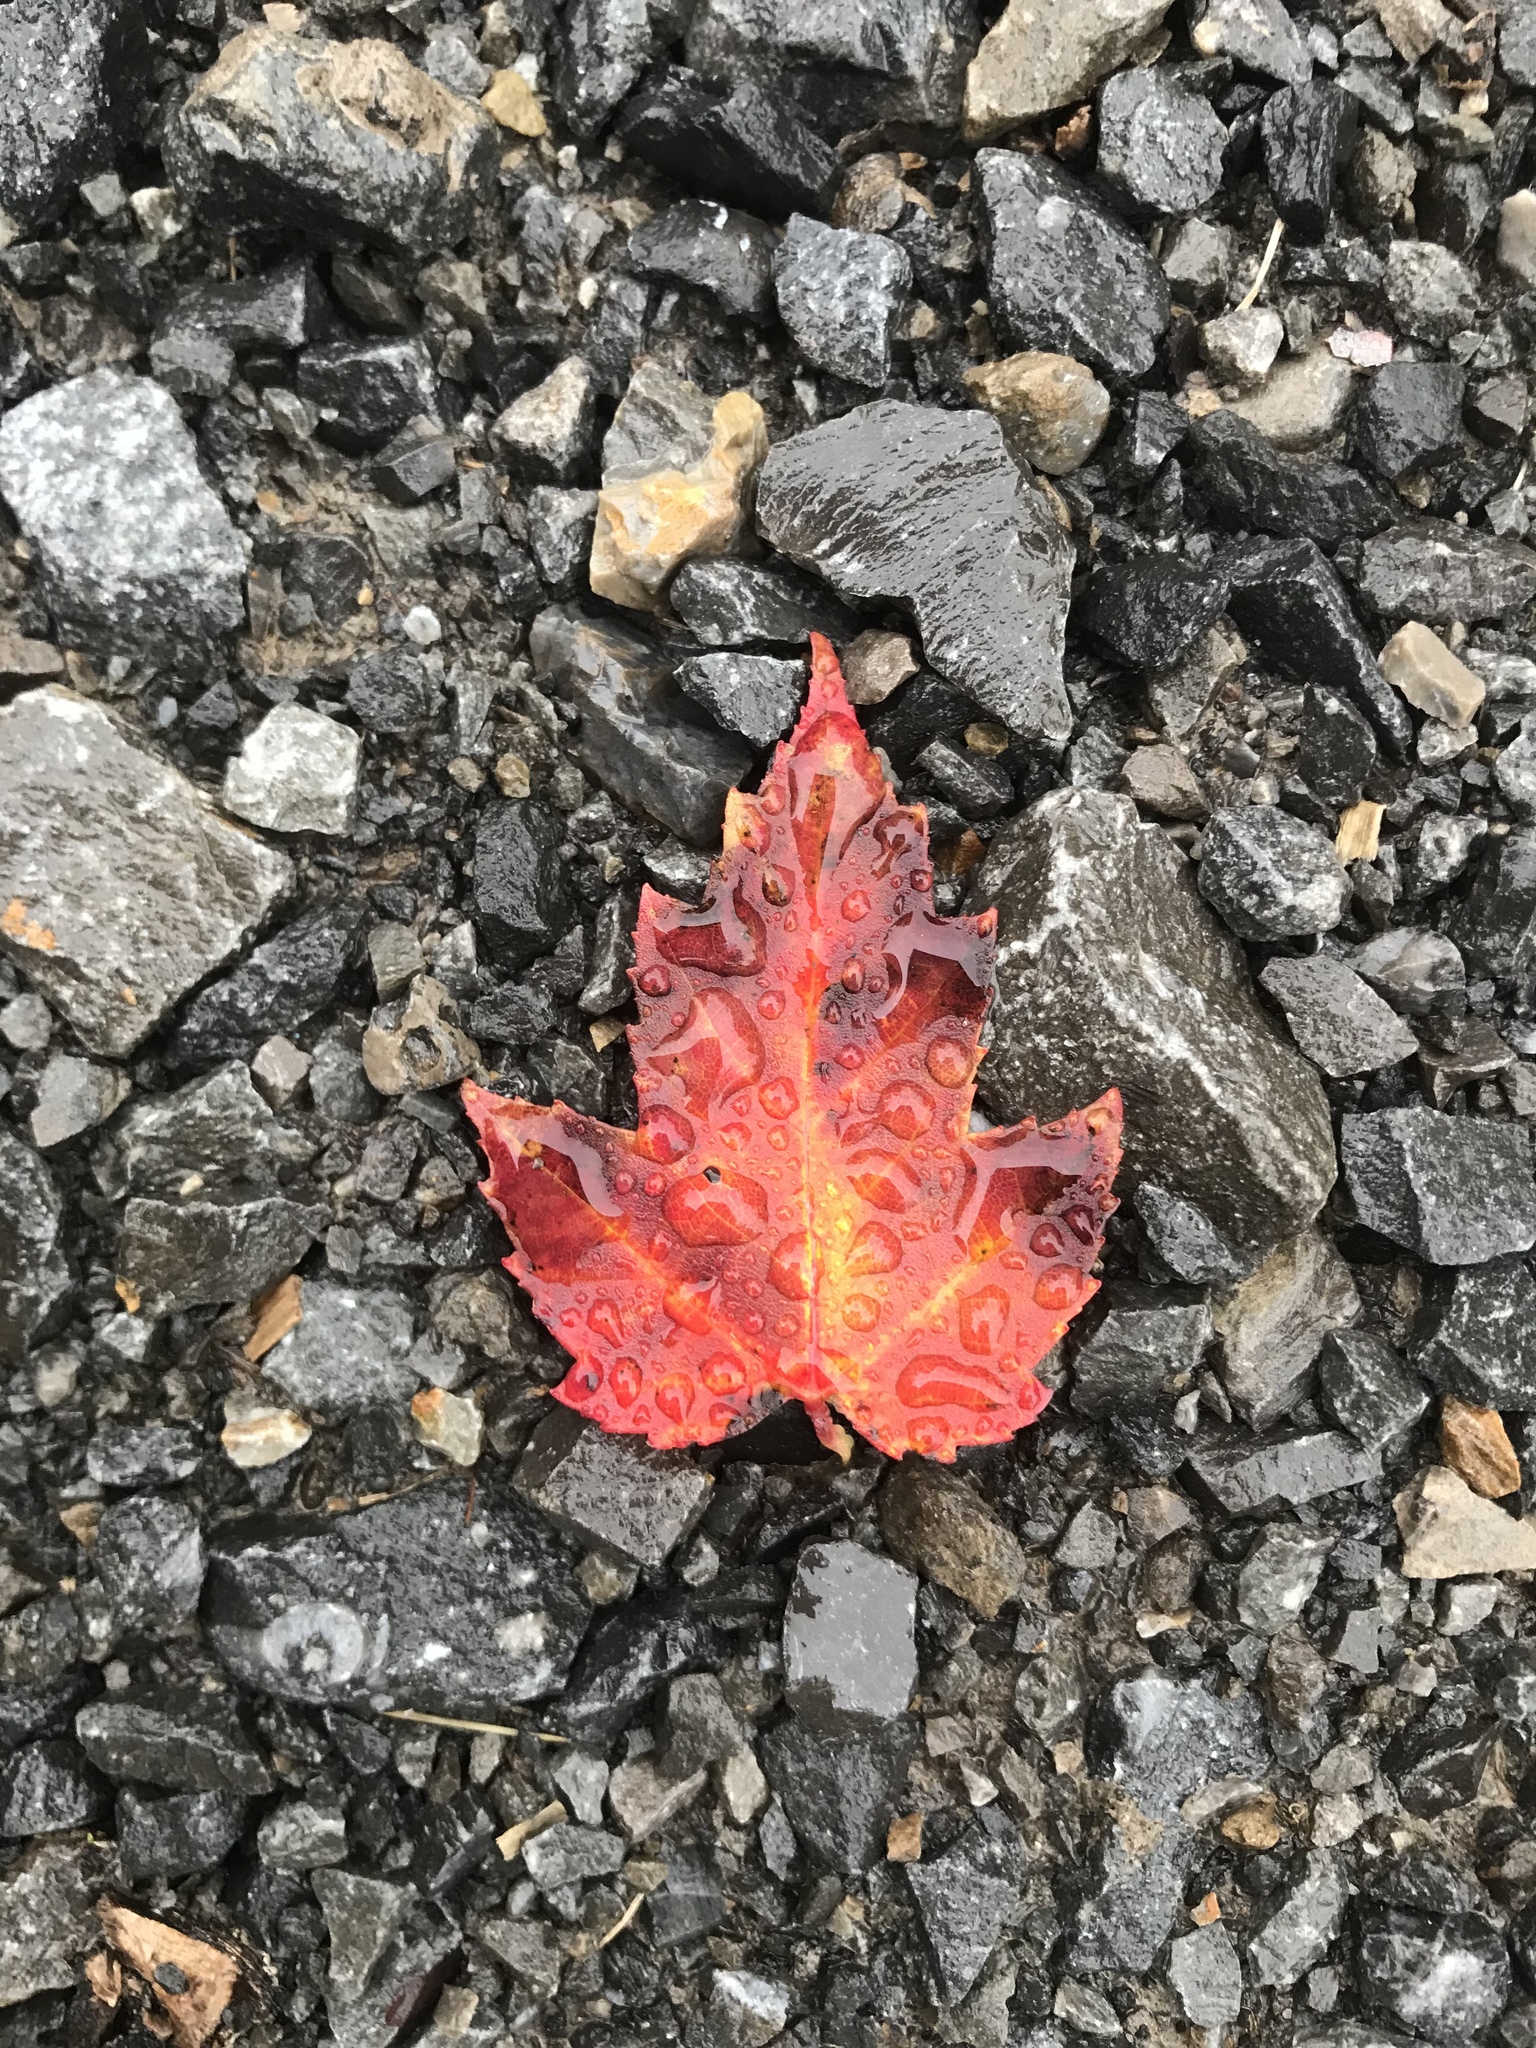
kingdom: Plantae
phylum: Tracheophyta
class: Magnoliopsida
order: Sapindales
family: Sapindaceae
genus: Acer
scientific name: Acer rubrum
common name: Red maple
